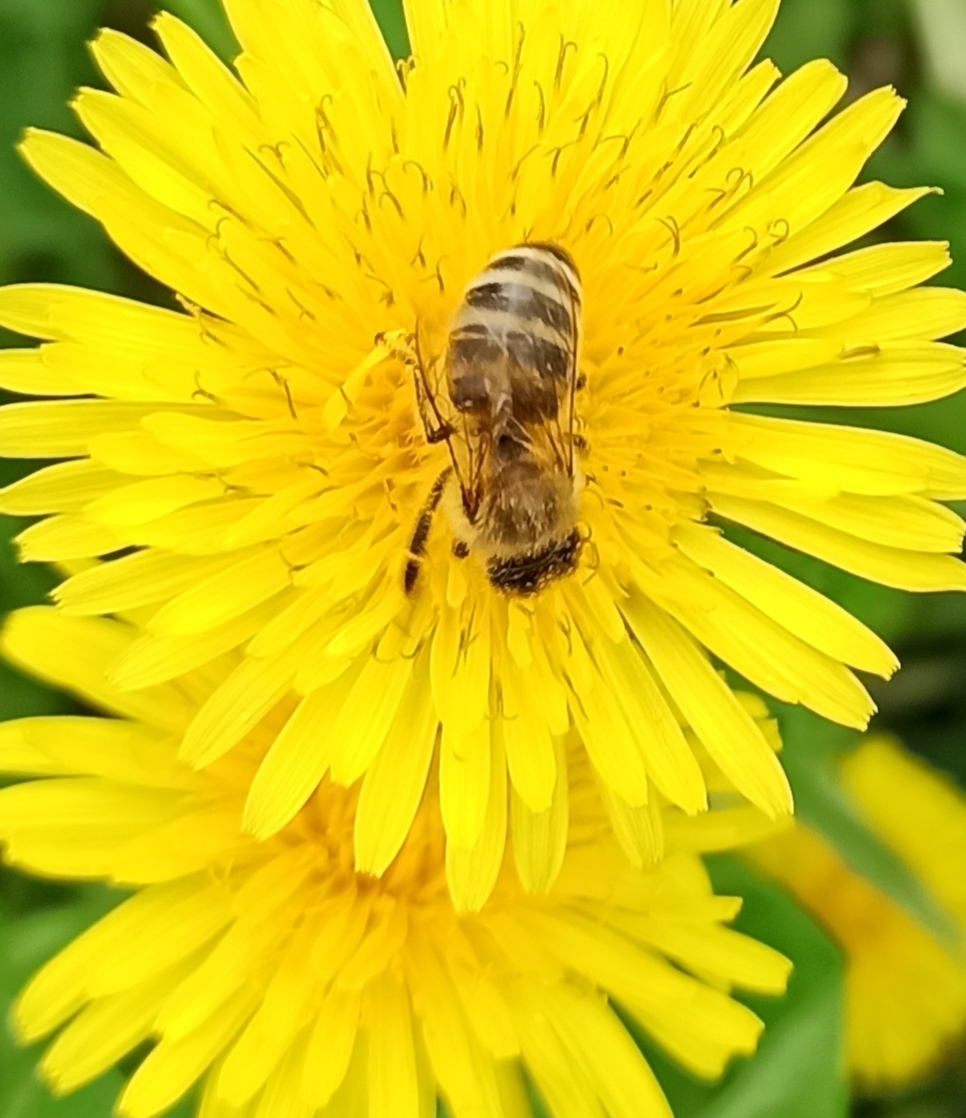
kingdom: Animalia
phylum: Arthropoda
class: Insecta
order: Hymenoptera
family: Apidae
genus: Apis
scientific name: Apis mellifera
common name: Honey bee
